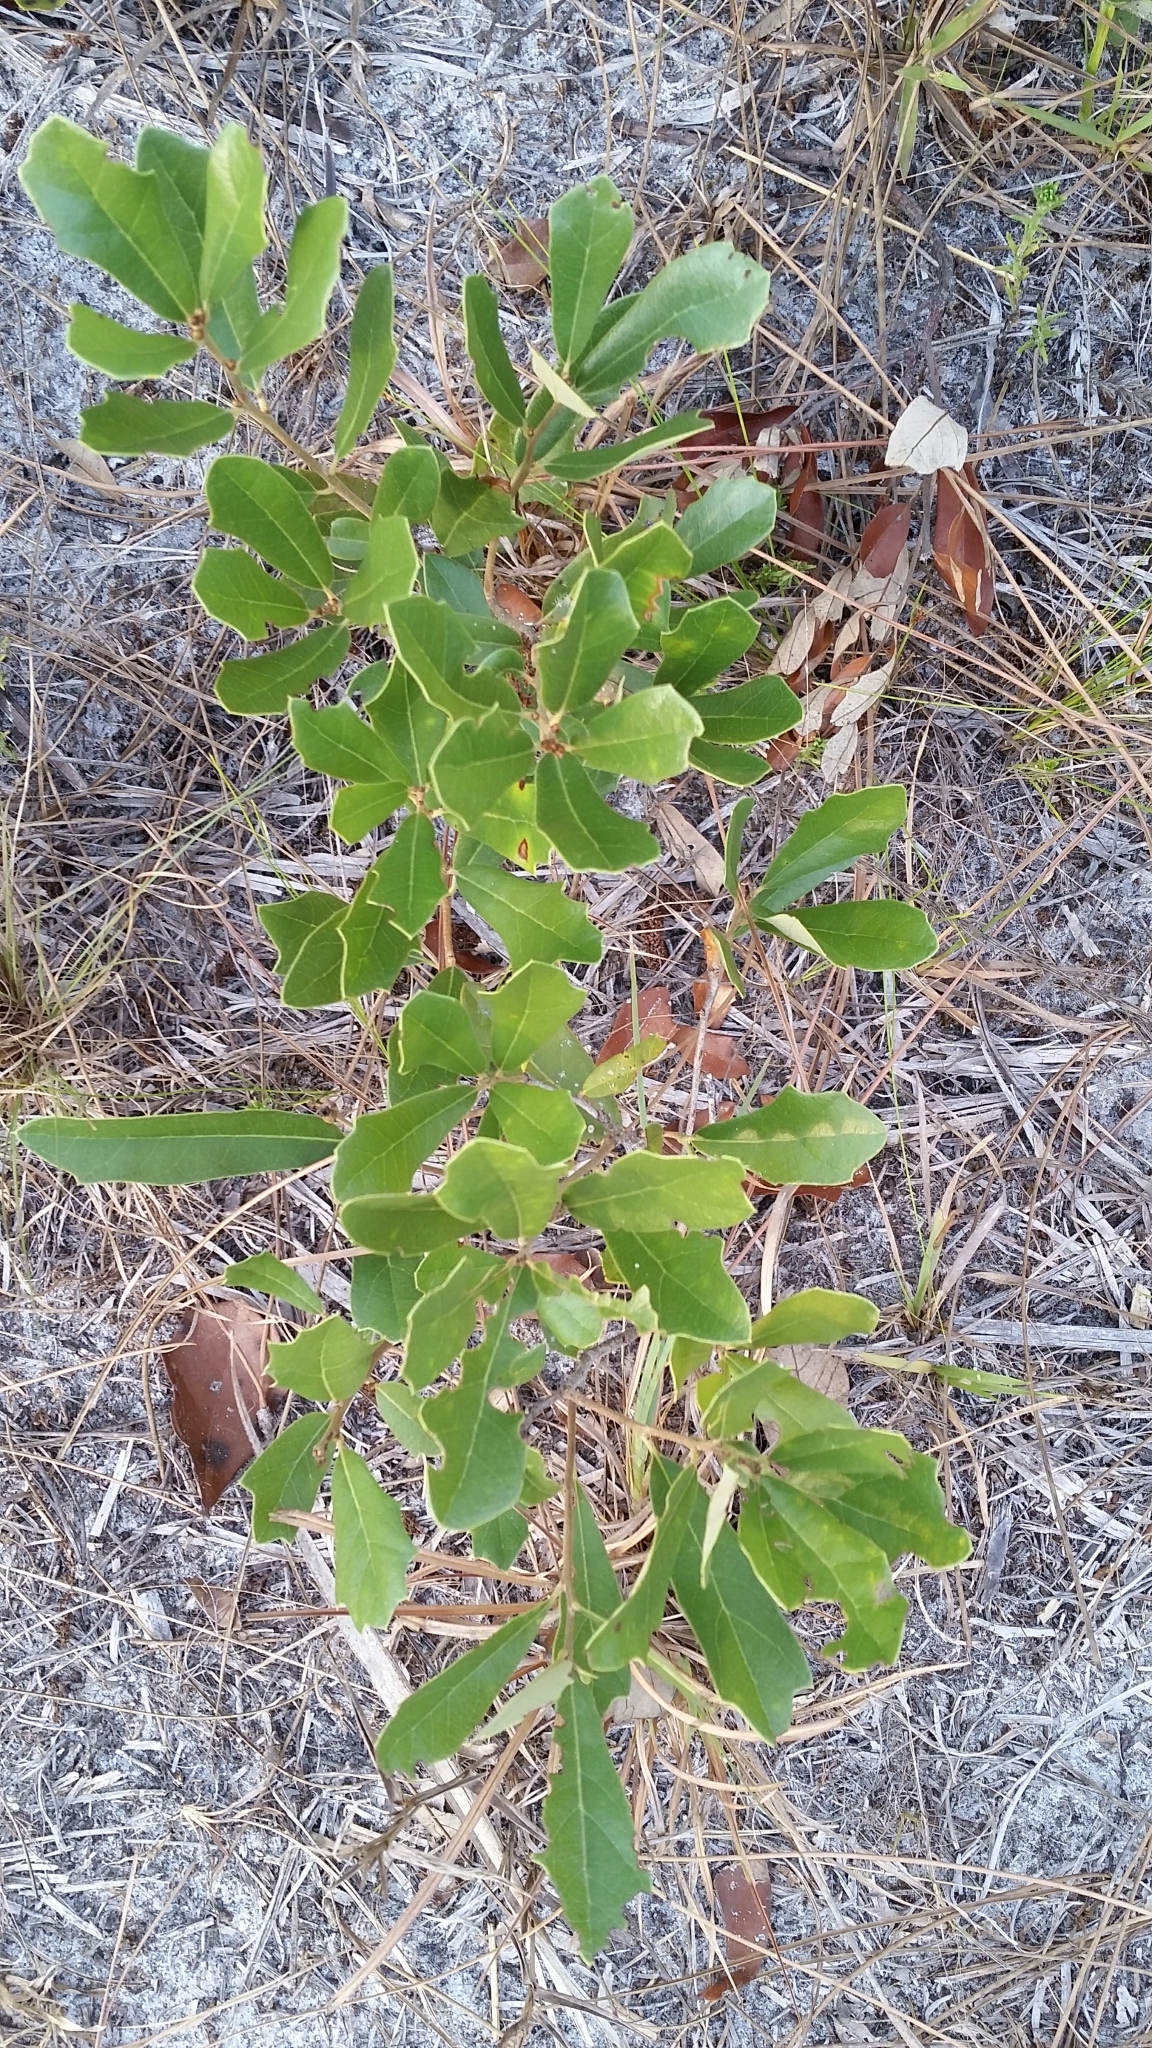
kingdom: Plantae
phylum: Tracheophyta
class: Magnoliopsida
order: Fagales
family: Fagaceae
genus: Quercus
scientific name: Quercus minima
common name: Dwarf live oak
